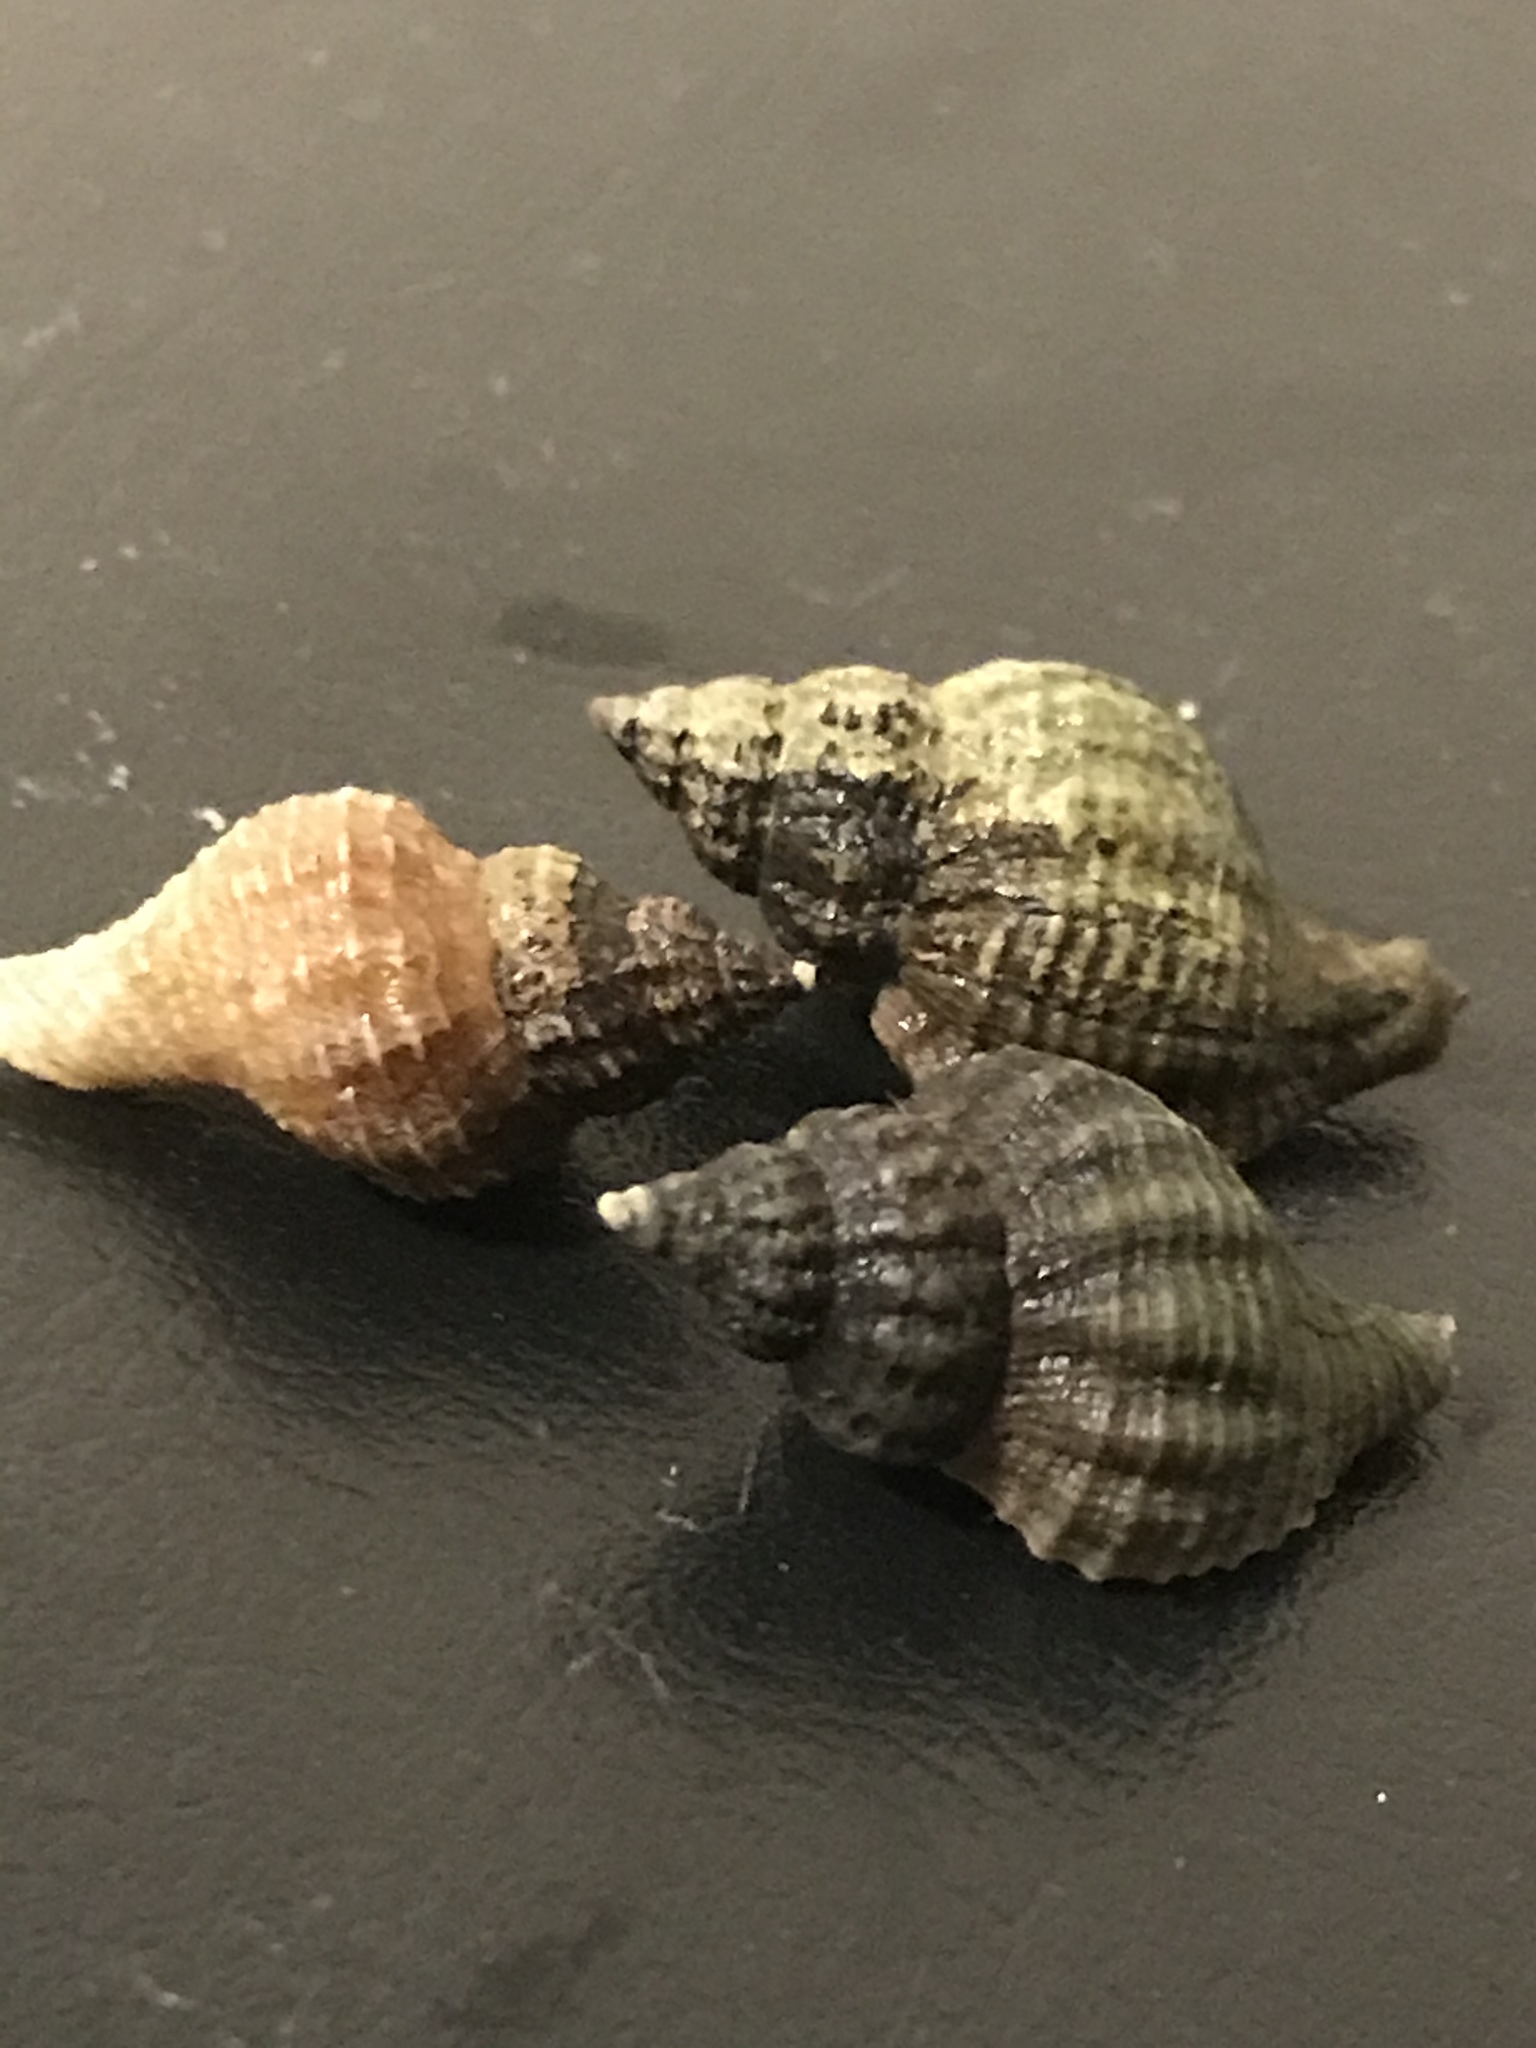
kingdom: Animalia
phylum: Mollusca
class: Gastropoda
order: Neogastropoda
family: Muricidae
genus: Urosalpinx
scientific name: Urosalpinx cinerea
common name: American sting winkle
